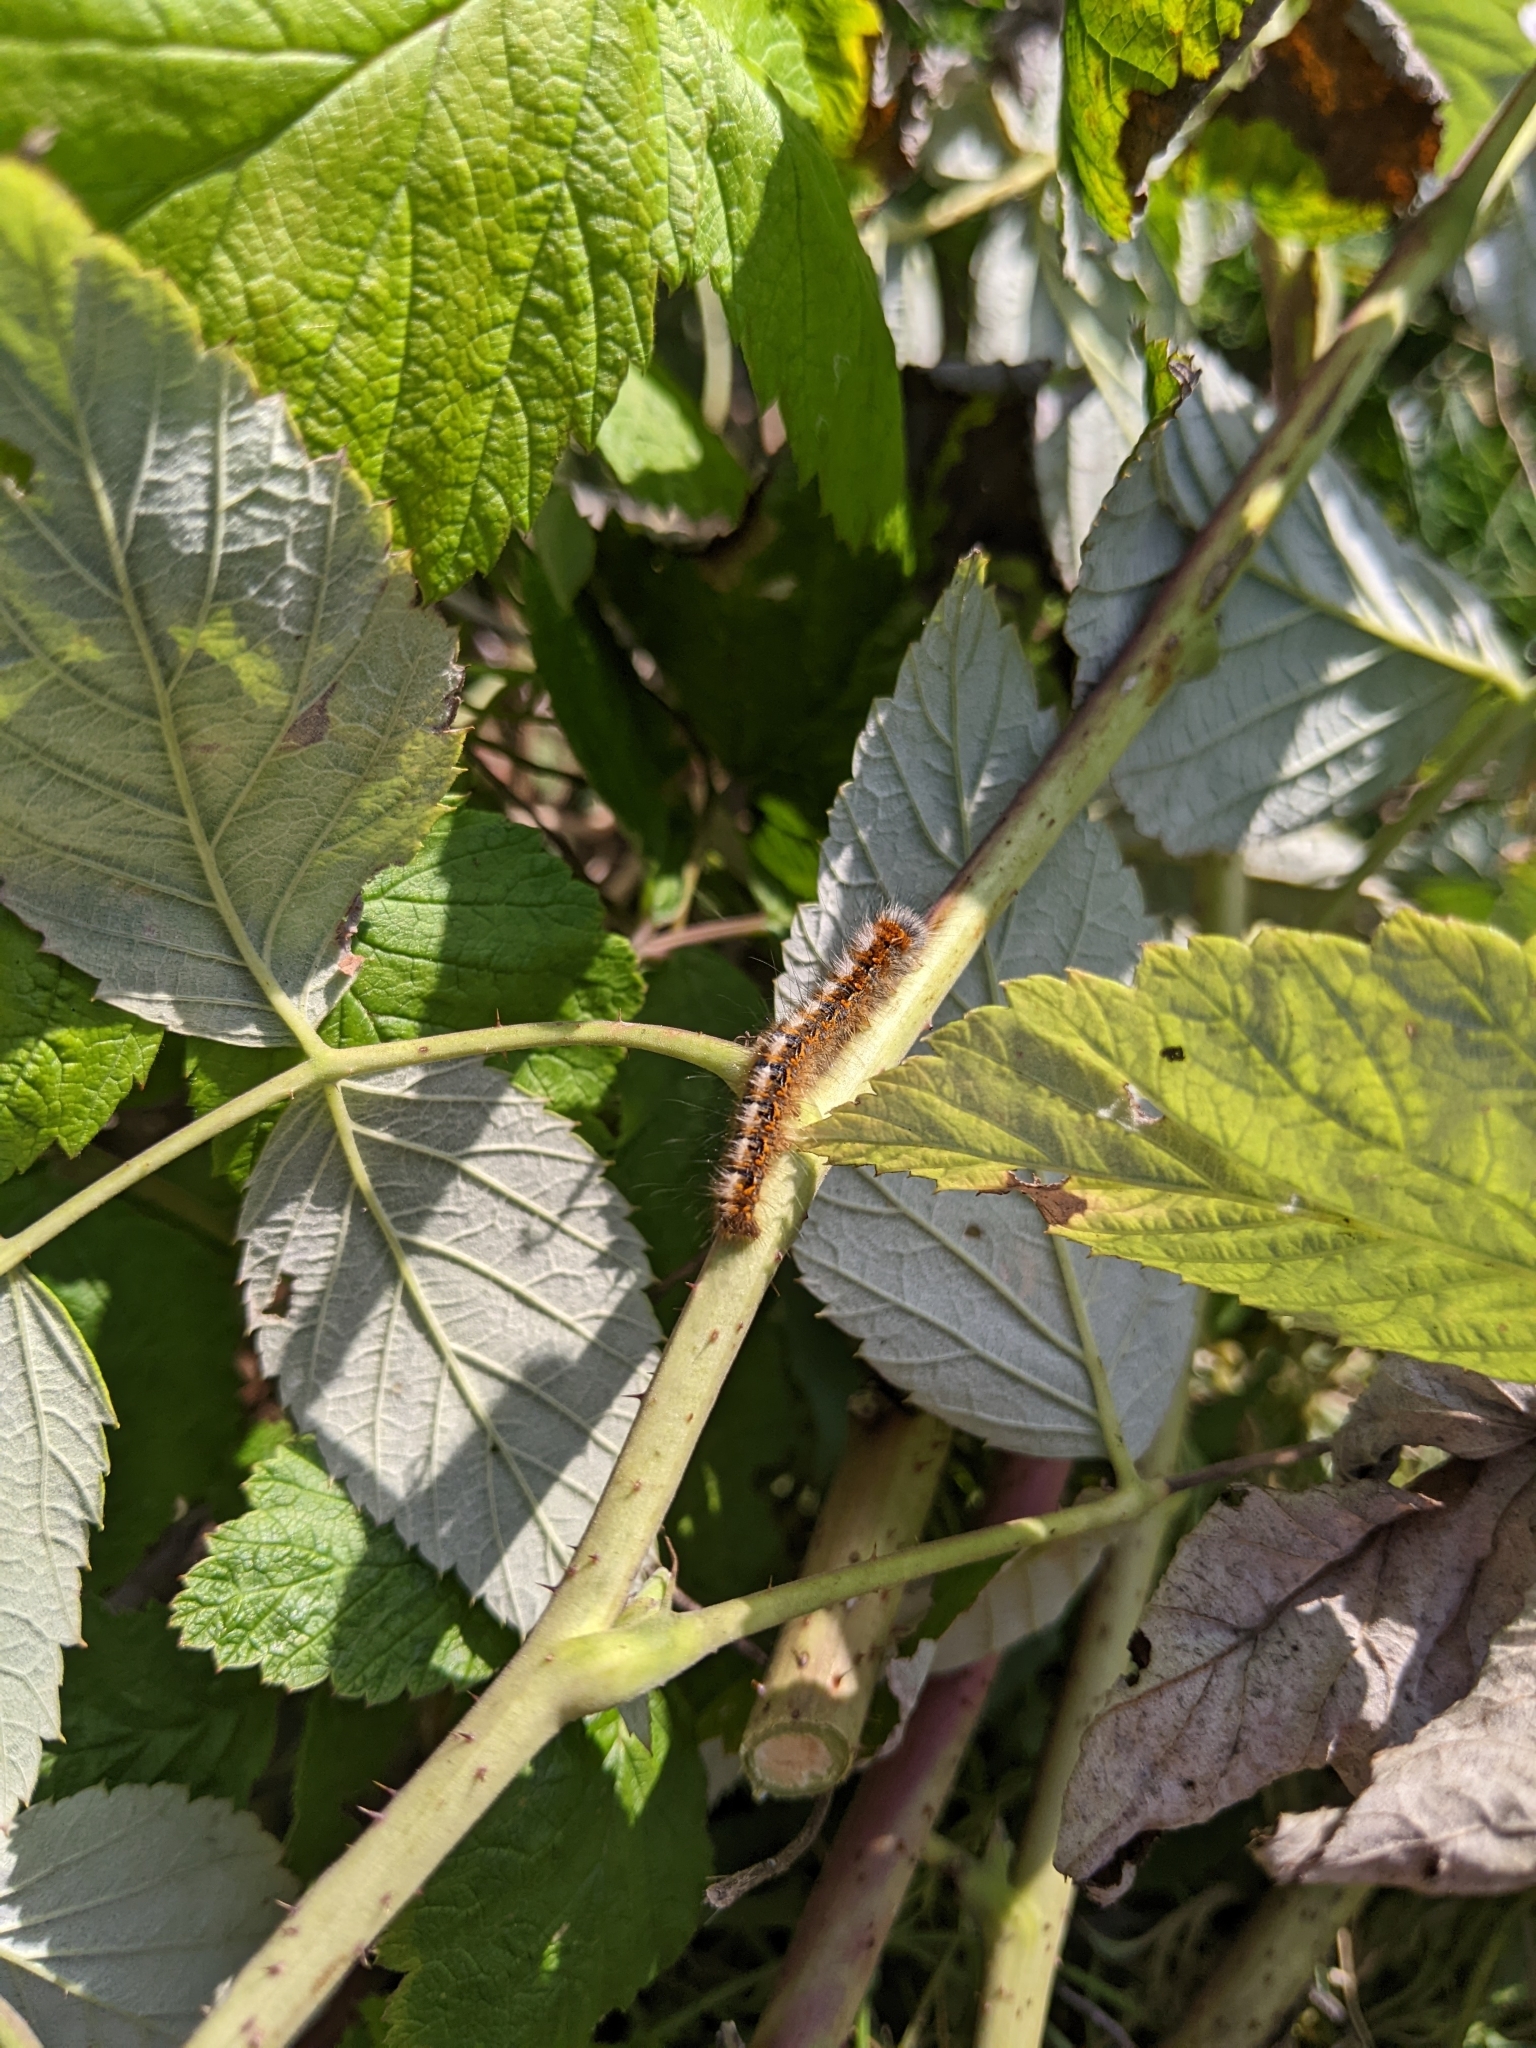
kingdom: Animalia
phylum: Arthropoda
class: Insecta
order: Lepidoptera
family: Lasiocampidae
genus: Lasiocampa
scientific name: Lasiocampa quercus
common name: Oak eggar
